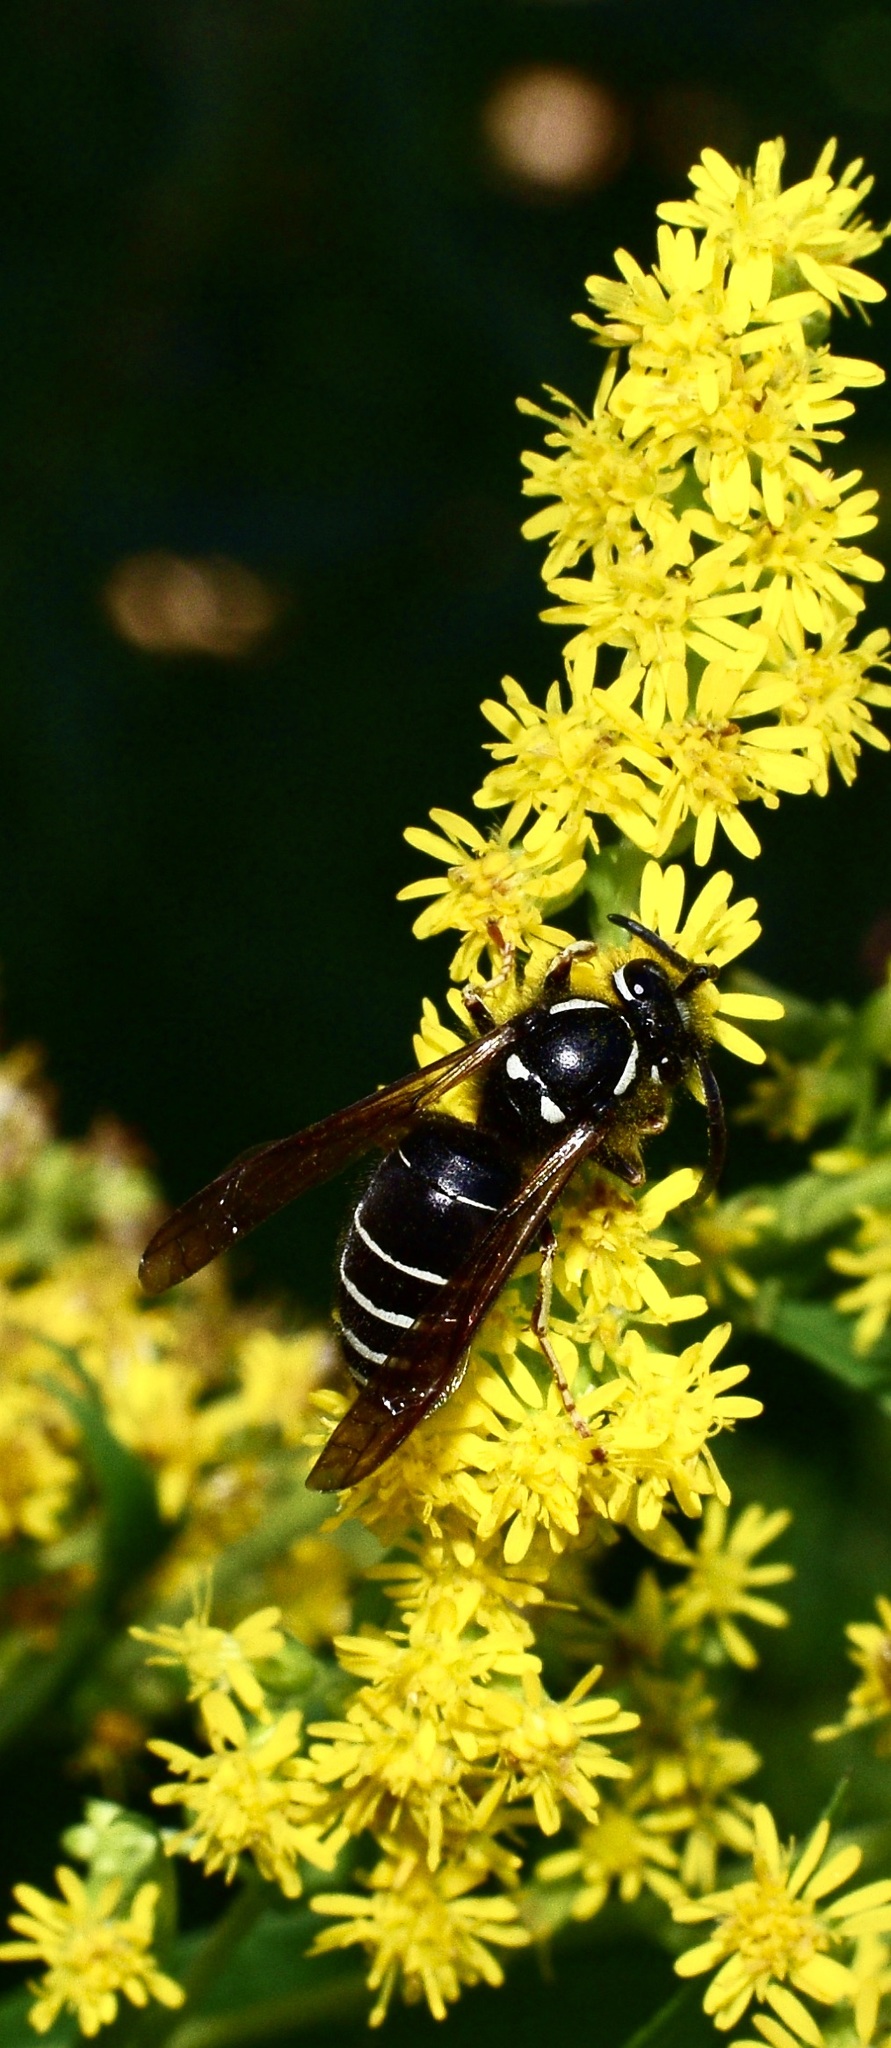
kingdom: Animalia
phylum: Arthropoda
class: Insecta
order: Hymenoptera
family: Vespidae
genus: Vespula
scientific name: Vespula consobrina
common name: Blackjacket
